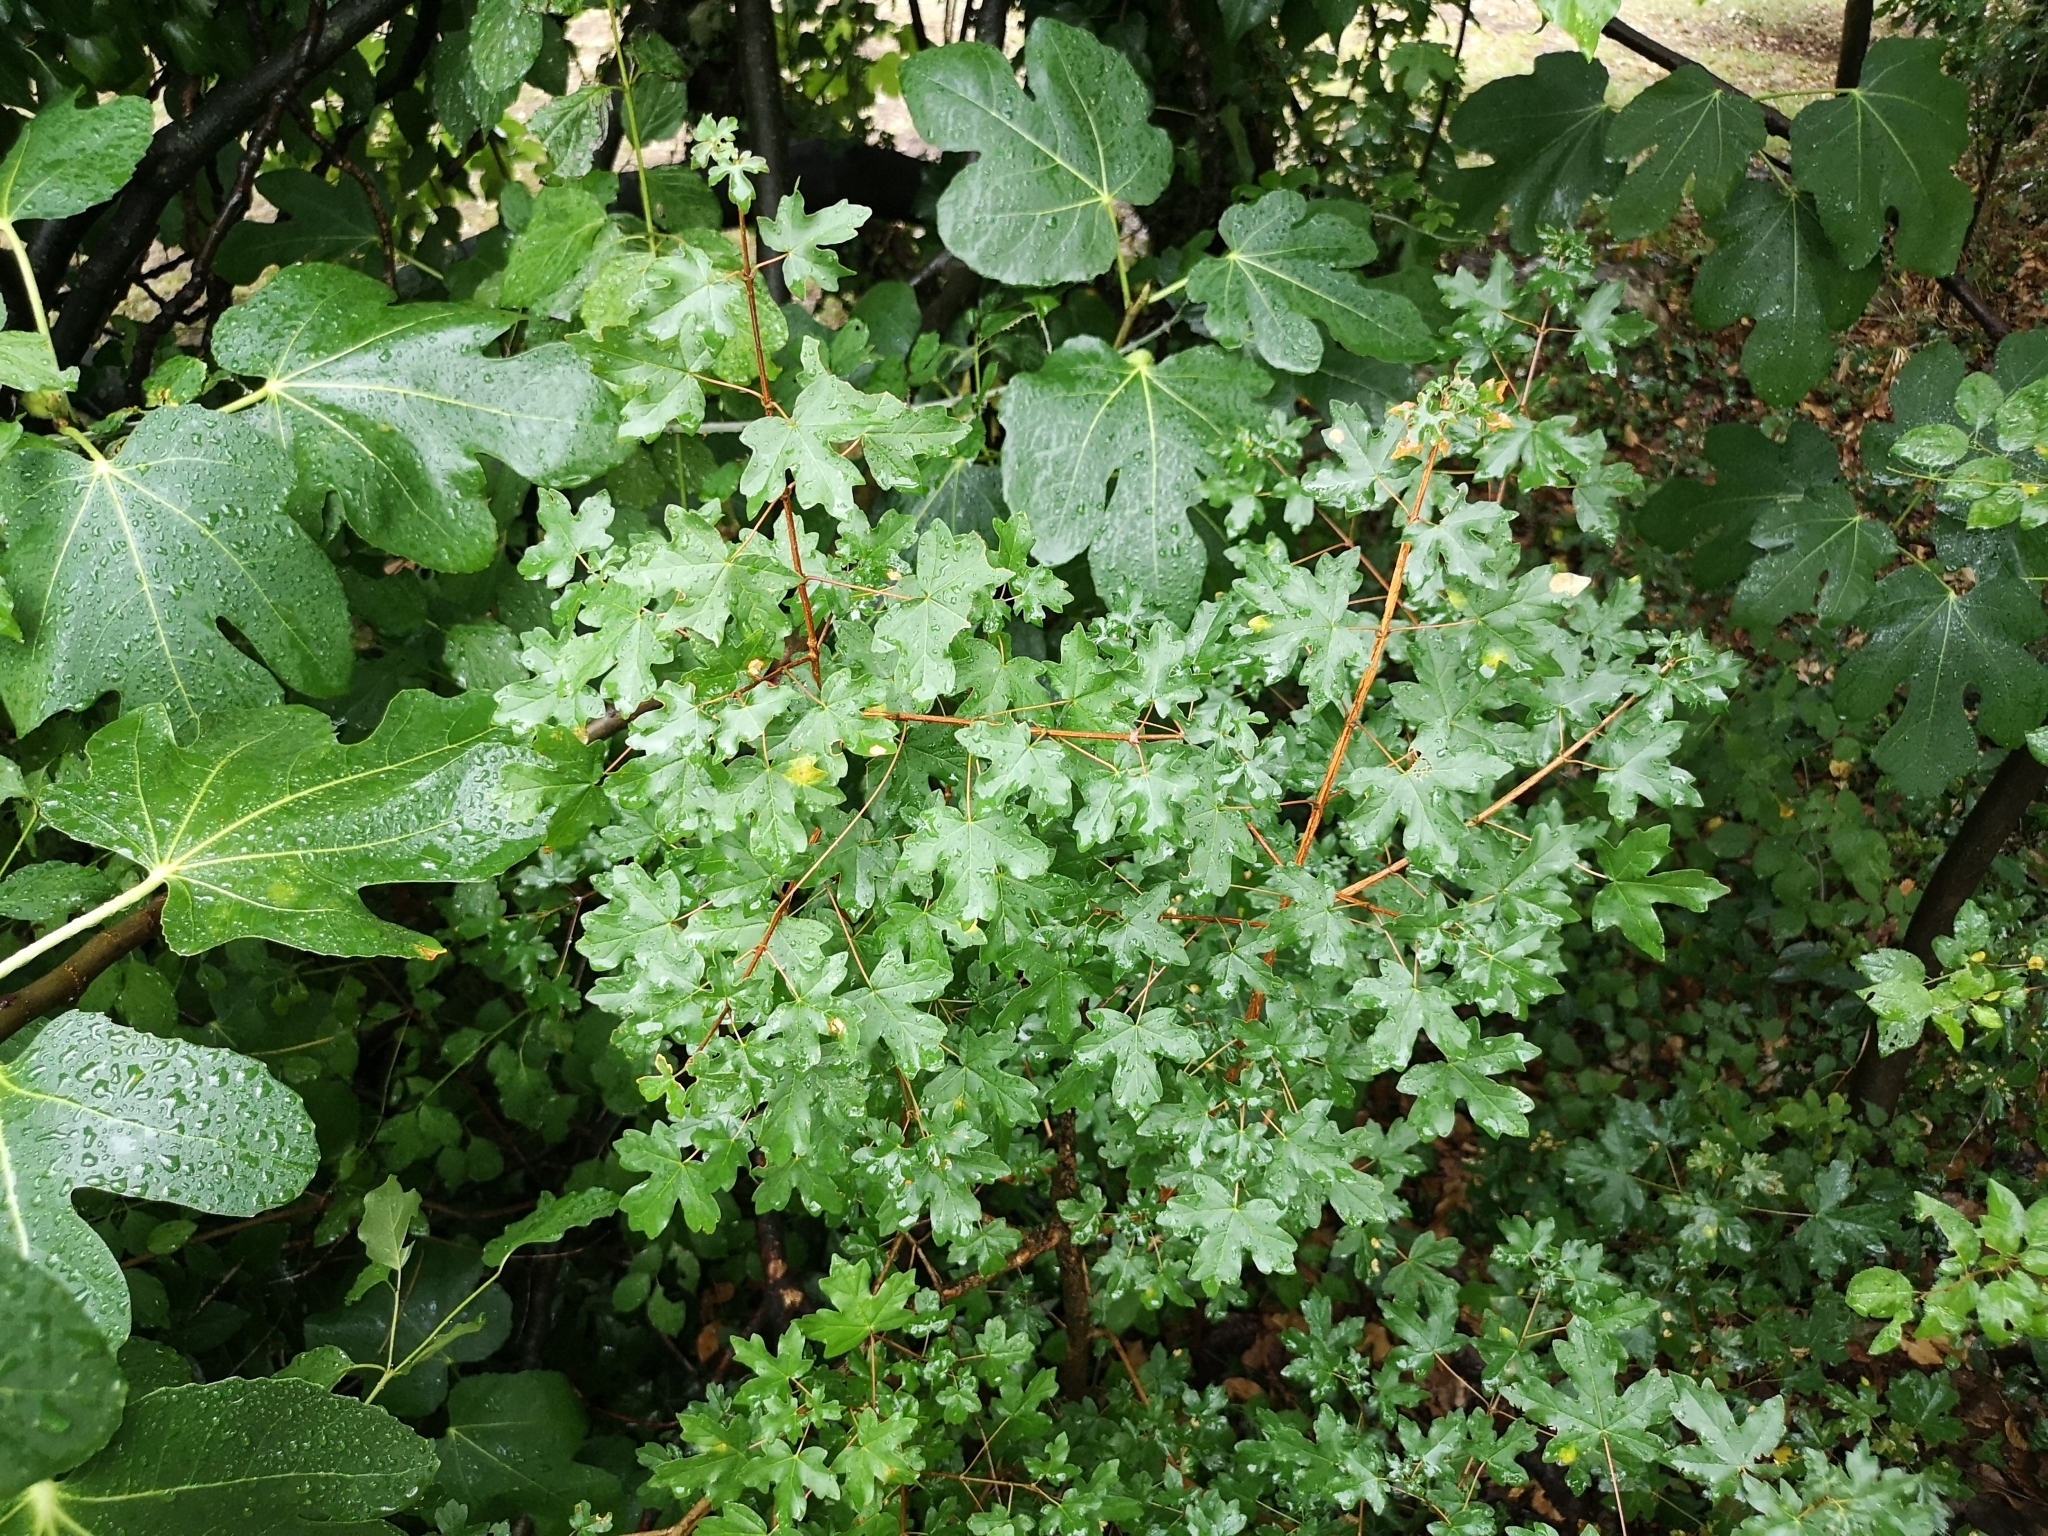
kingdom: Plantae
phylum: Tracheophyta
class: Magnoliopsida
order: Sapindales
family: Sapindaceae
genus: Acer
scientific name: Acer campestre
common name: Field maple
